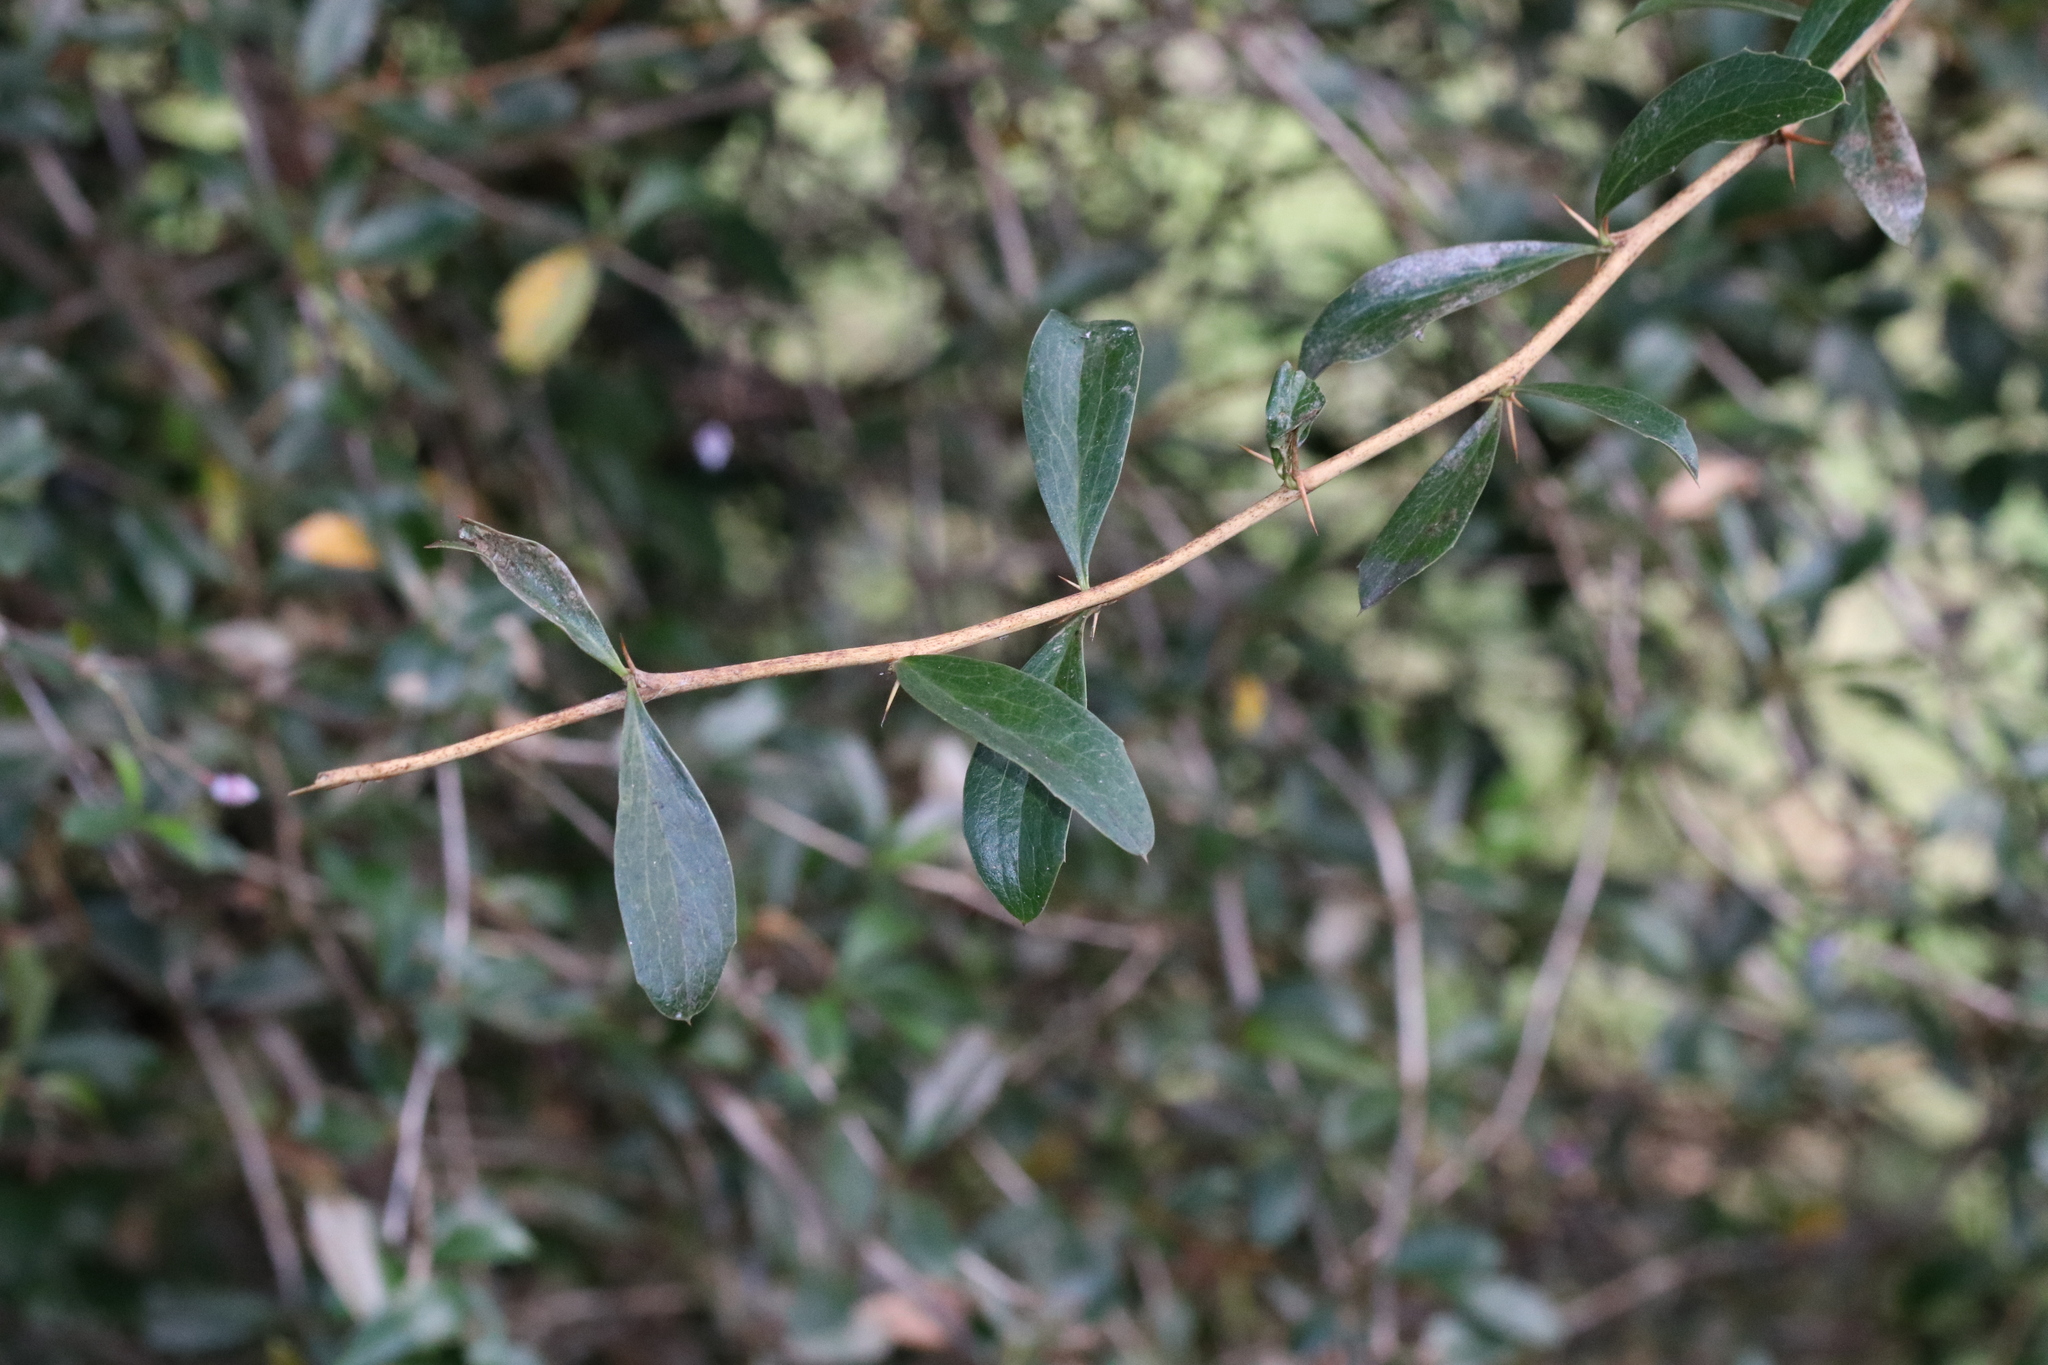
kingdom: Plantae
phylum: Tracheophyta
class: Magnoliopsida
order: Ranunculales
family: Berberidaceae
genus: Berberis
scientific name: Berberis glaucocarpa
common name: Great barberry
